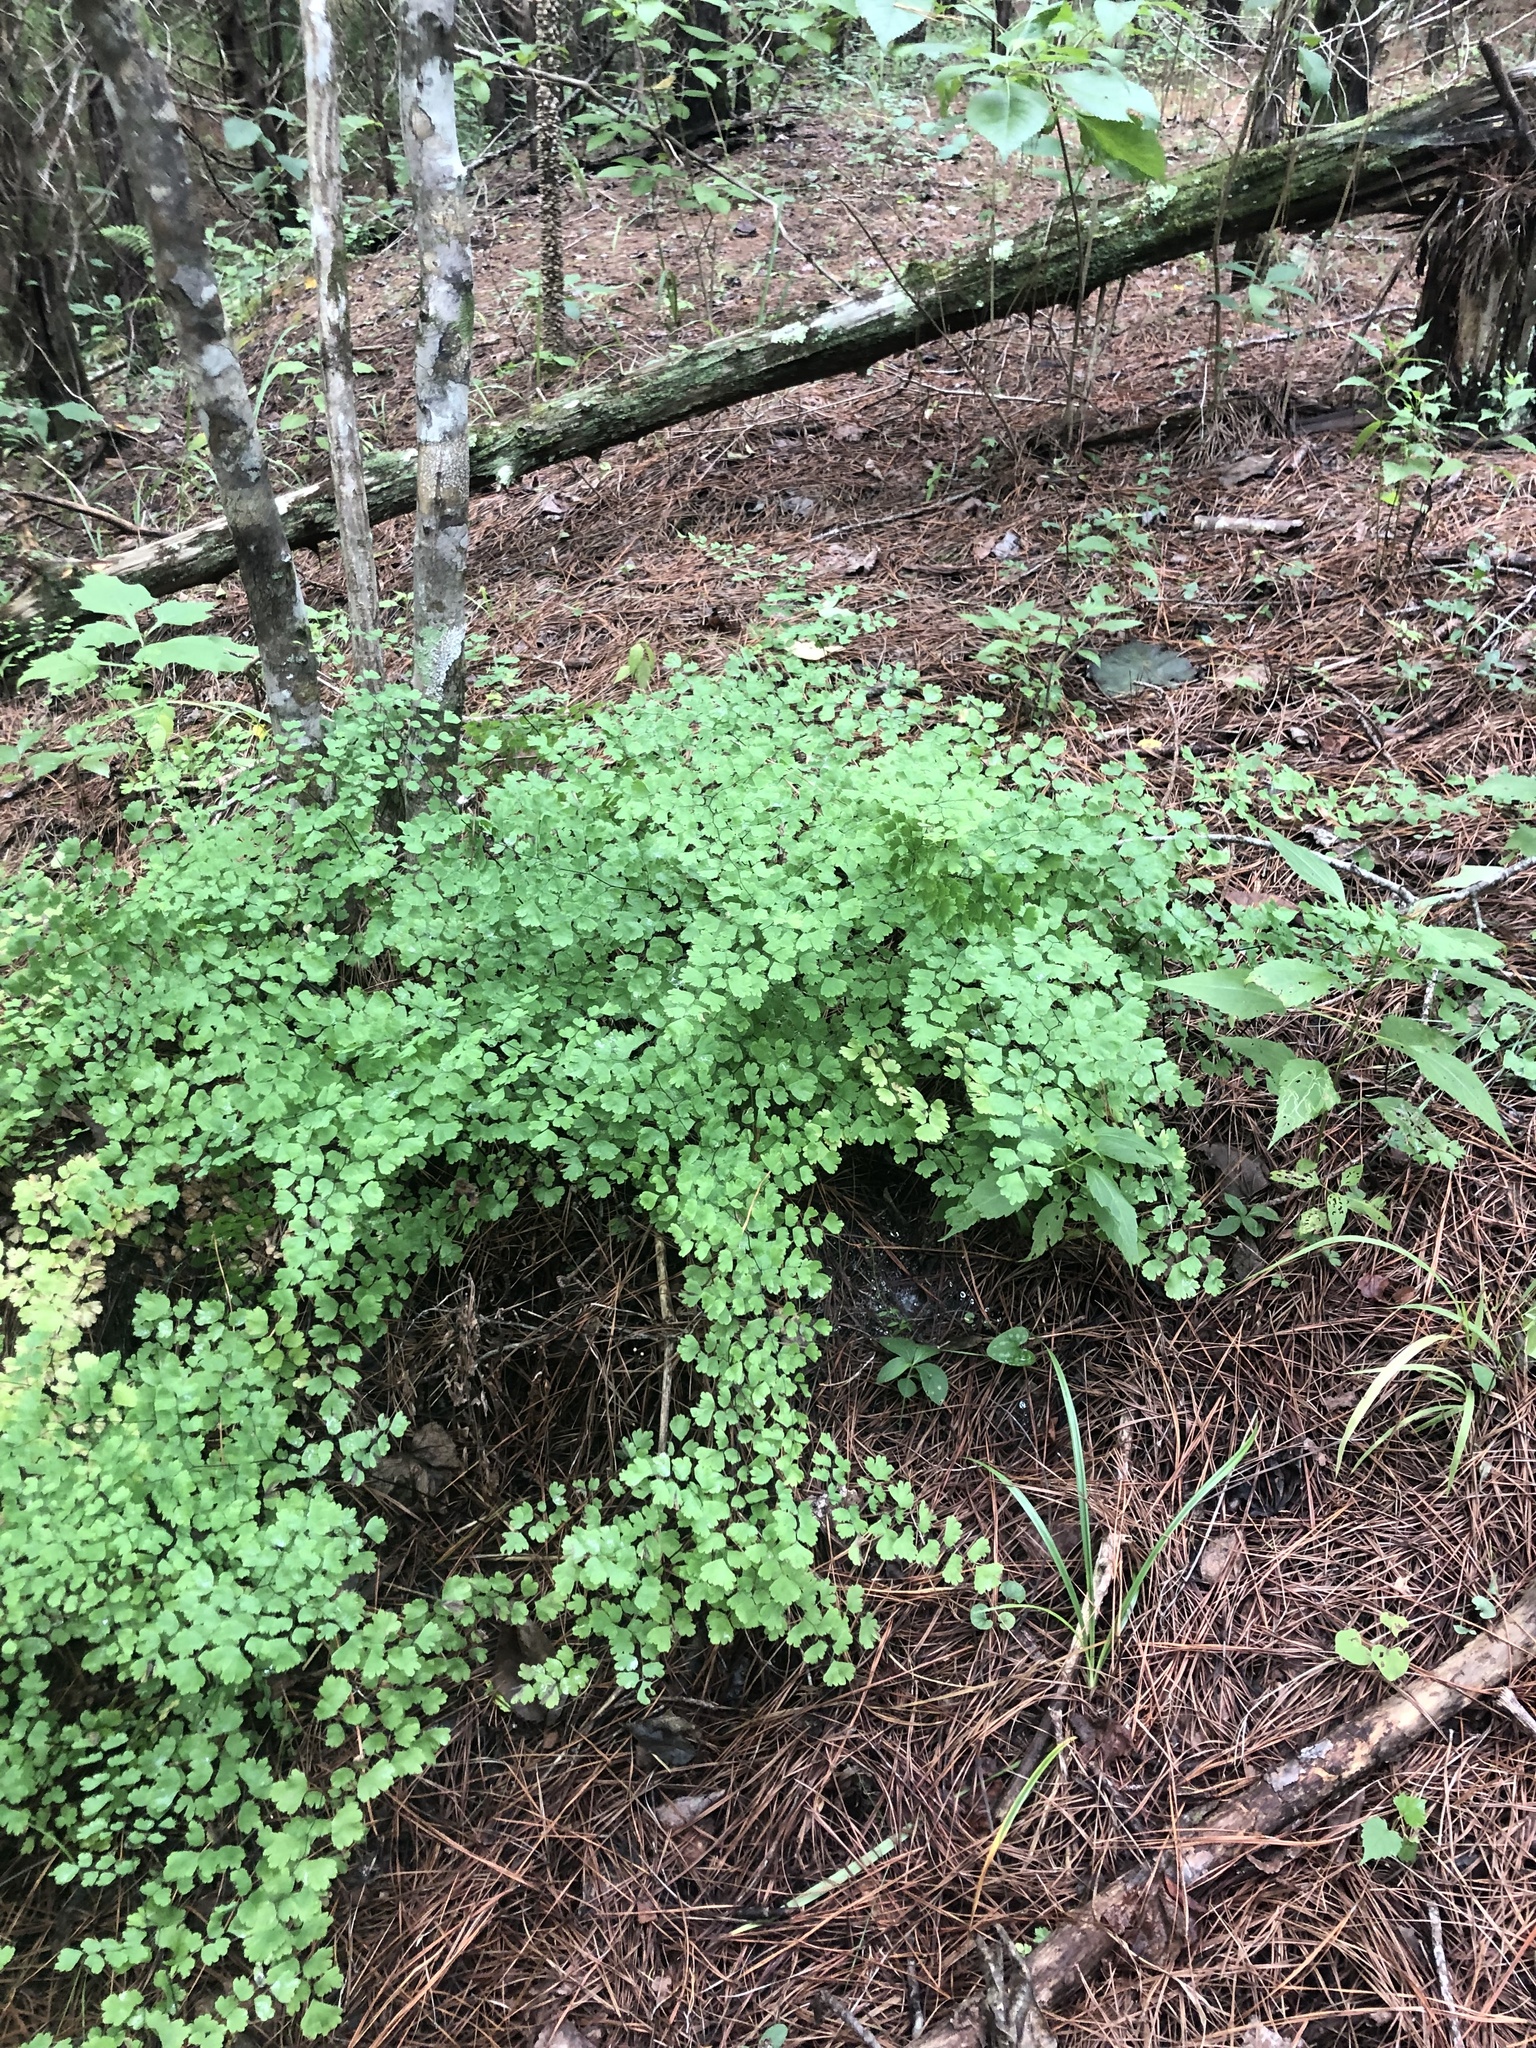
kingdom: Plantae
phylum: Tracheophyta
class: Polypodiopsida
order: Polypodiales
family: Pteridaceae
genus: Adiantum
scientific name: Adiantum capillus-veneris
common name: Maidenhair fern
